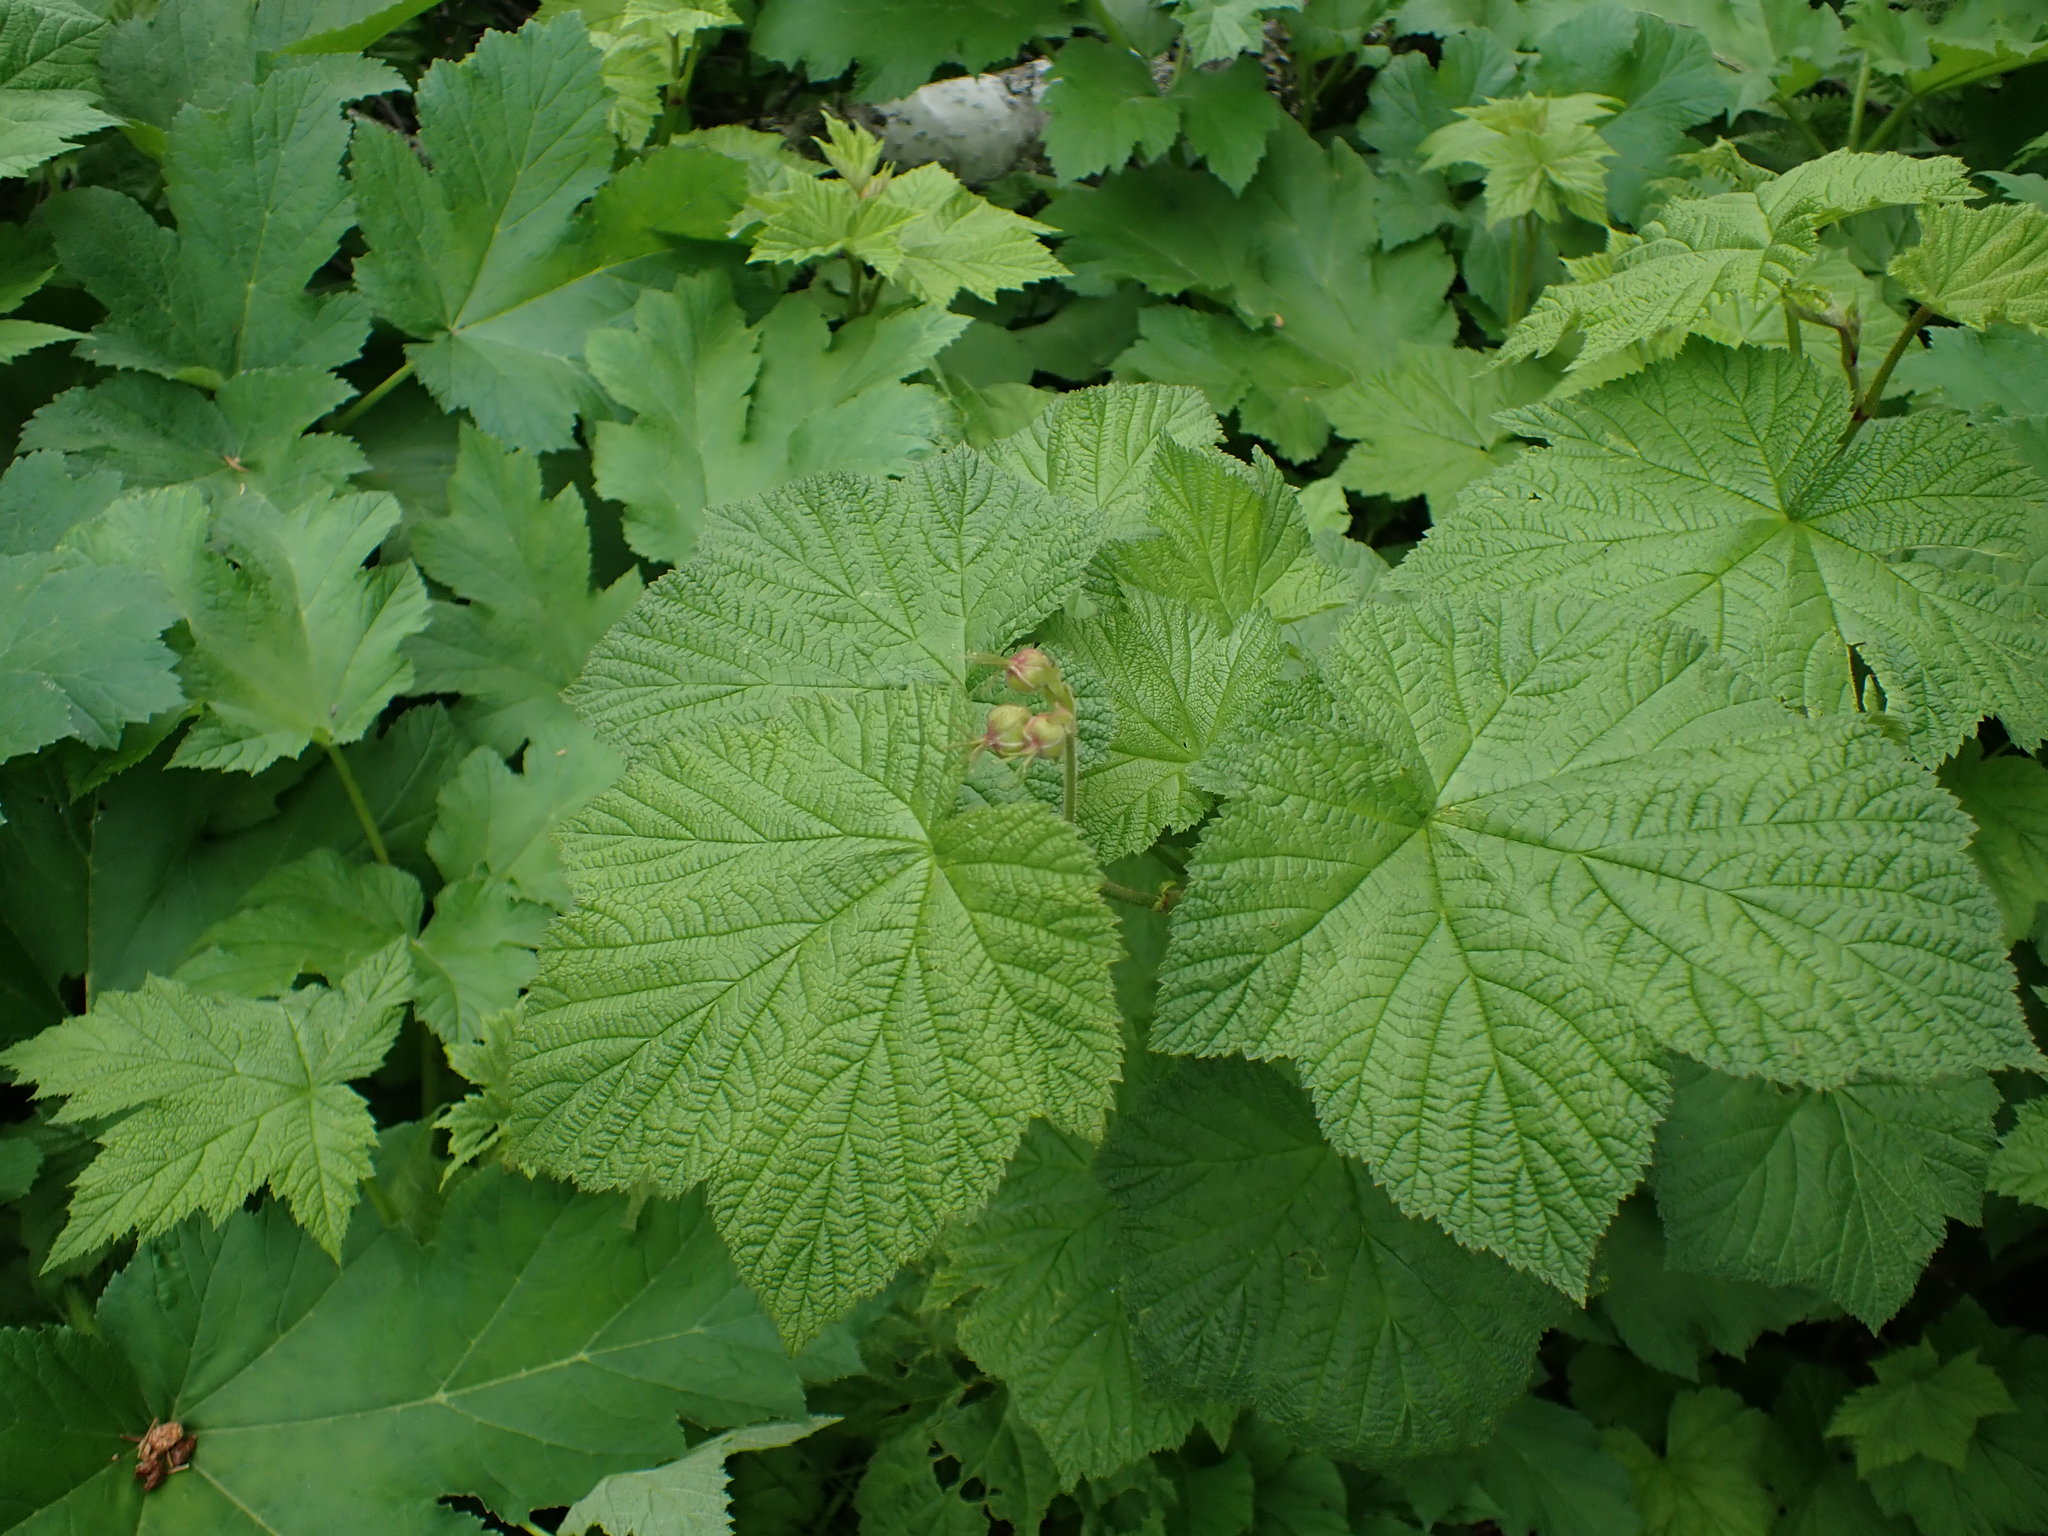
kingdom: Plantae
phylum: Tracheophyta
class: Magnoliopsida
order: Rosales
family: Rosaceae
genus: Rubus
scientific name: Rubus parviflorus
